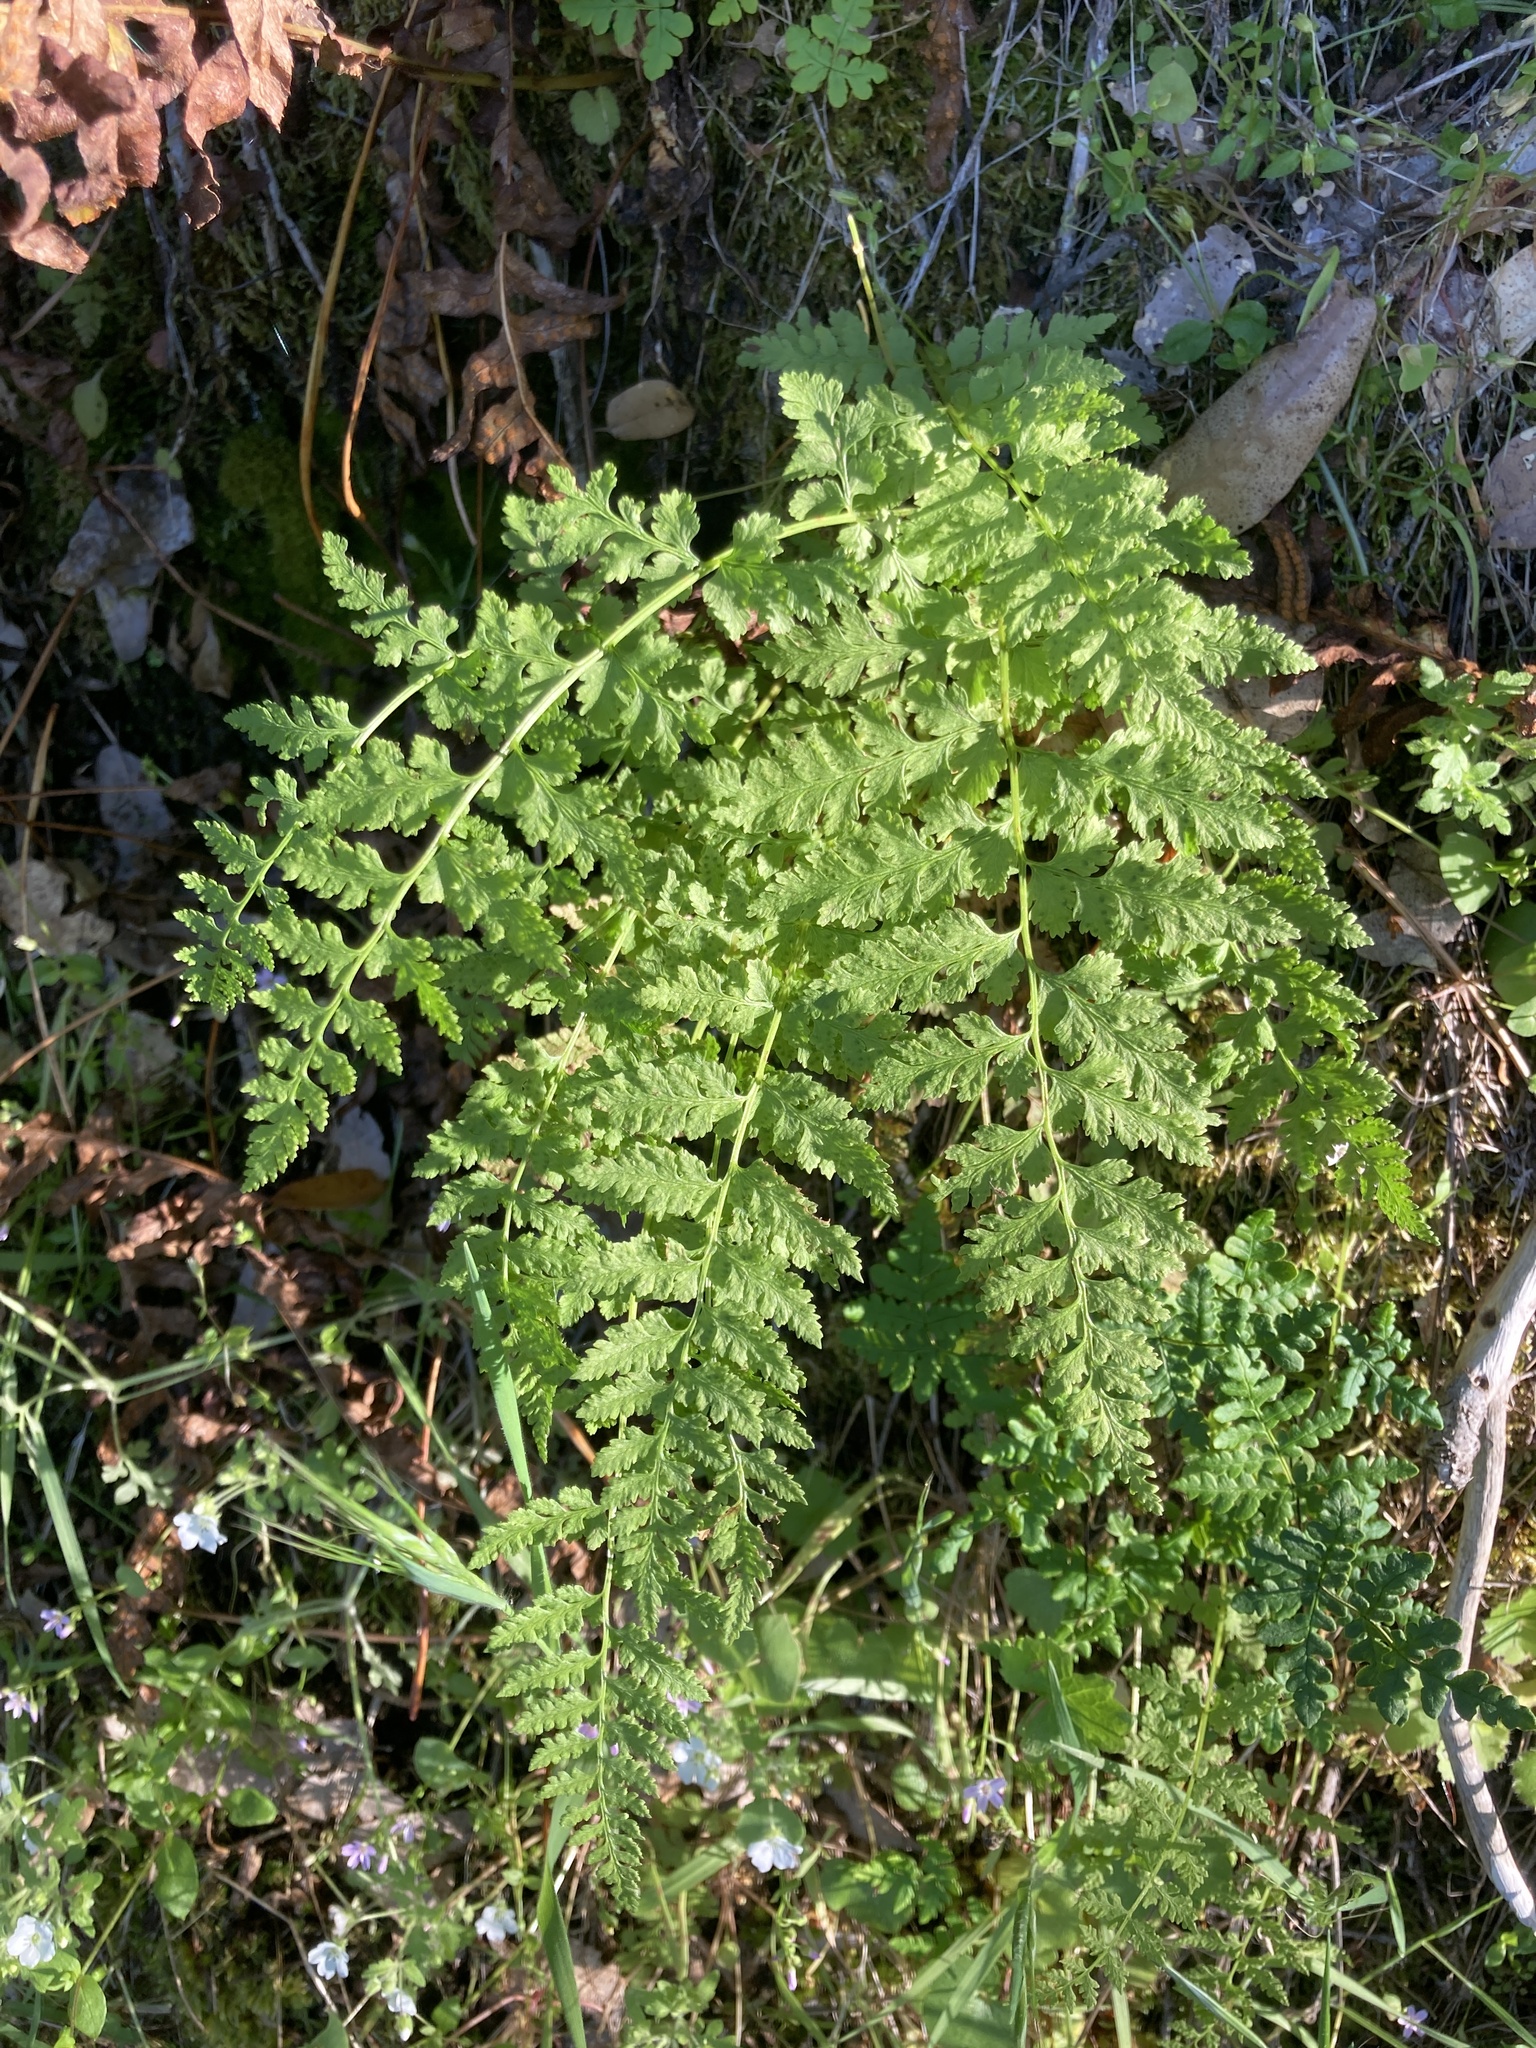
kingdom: Plantae
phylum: Tracheophyta
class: Polypodiopsida
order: Polypodiales
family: Cystopteridaceae
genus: Cystopteris
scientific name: Cystopteris fragilis
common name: Brittle bladder fern
